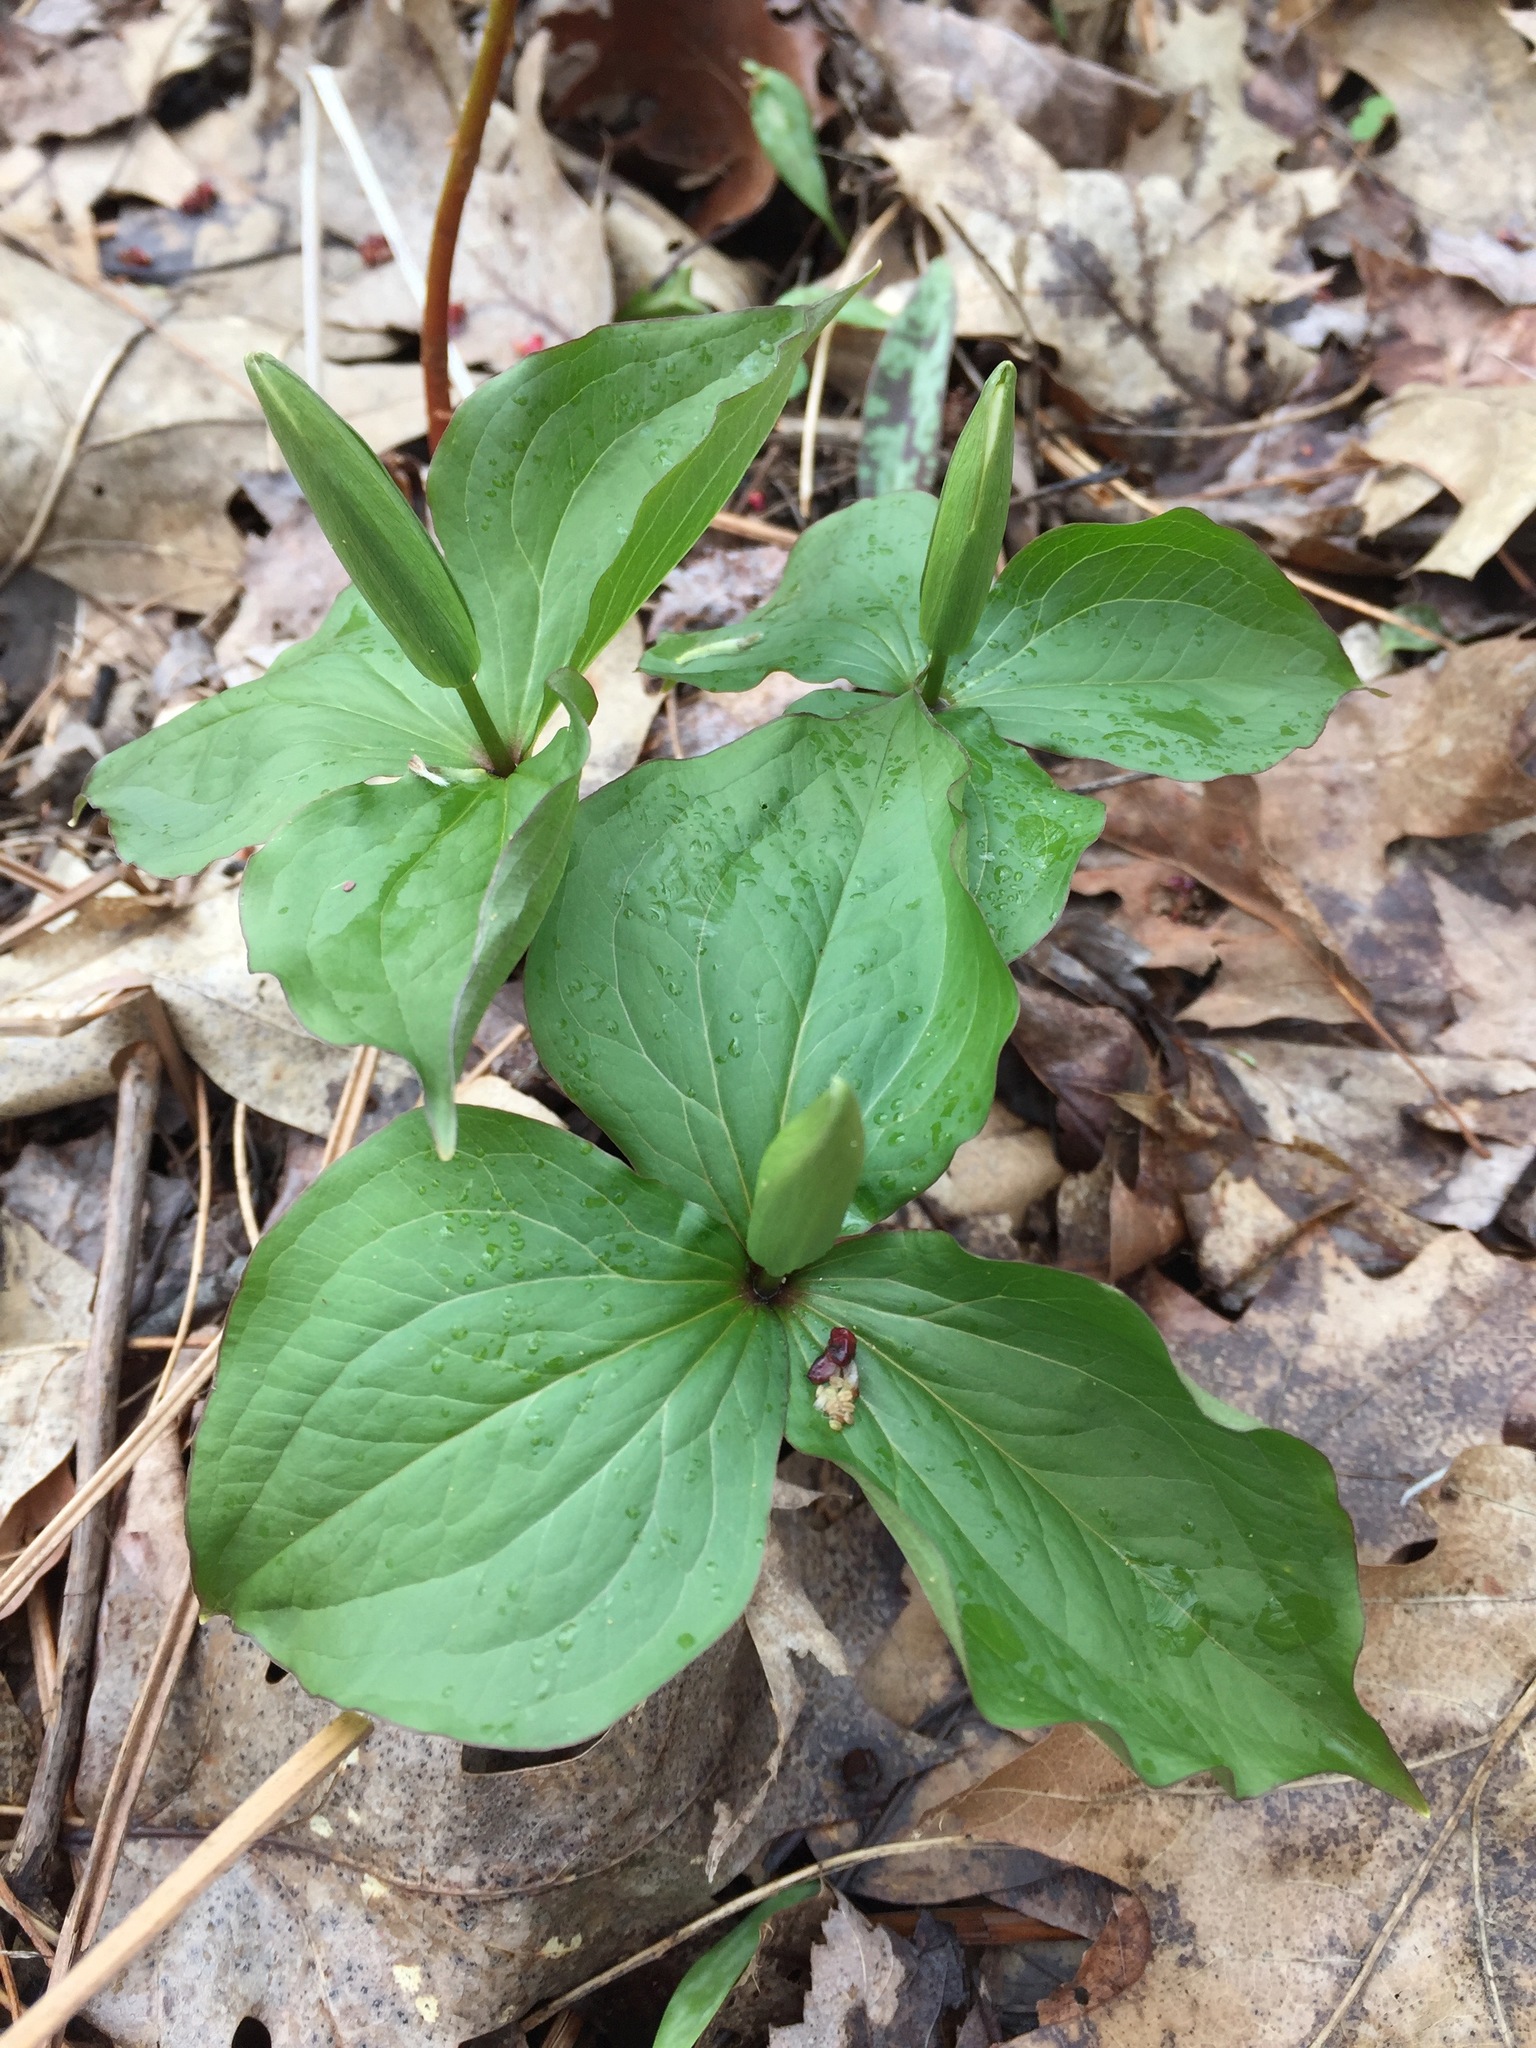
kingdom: Plantae
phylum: Tracheophyta
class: Liliopsida
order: Liliales
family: Melanthiaceae
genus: Trillium
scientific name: Trillium grandiflorum
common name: Great white trillium
